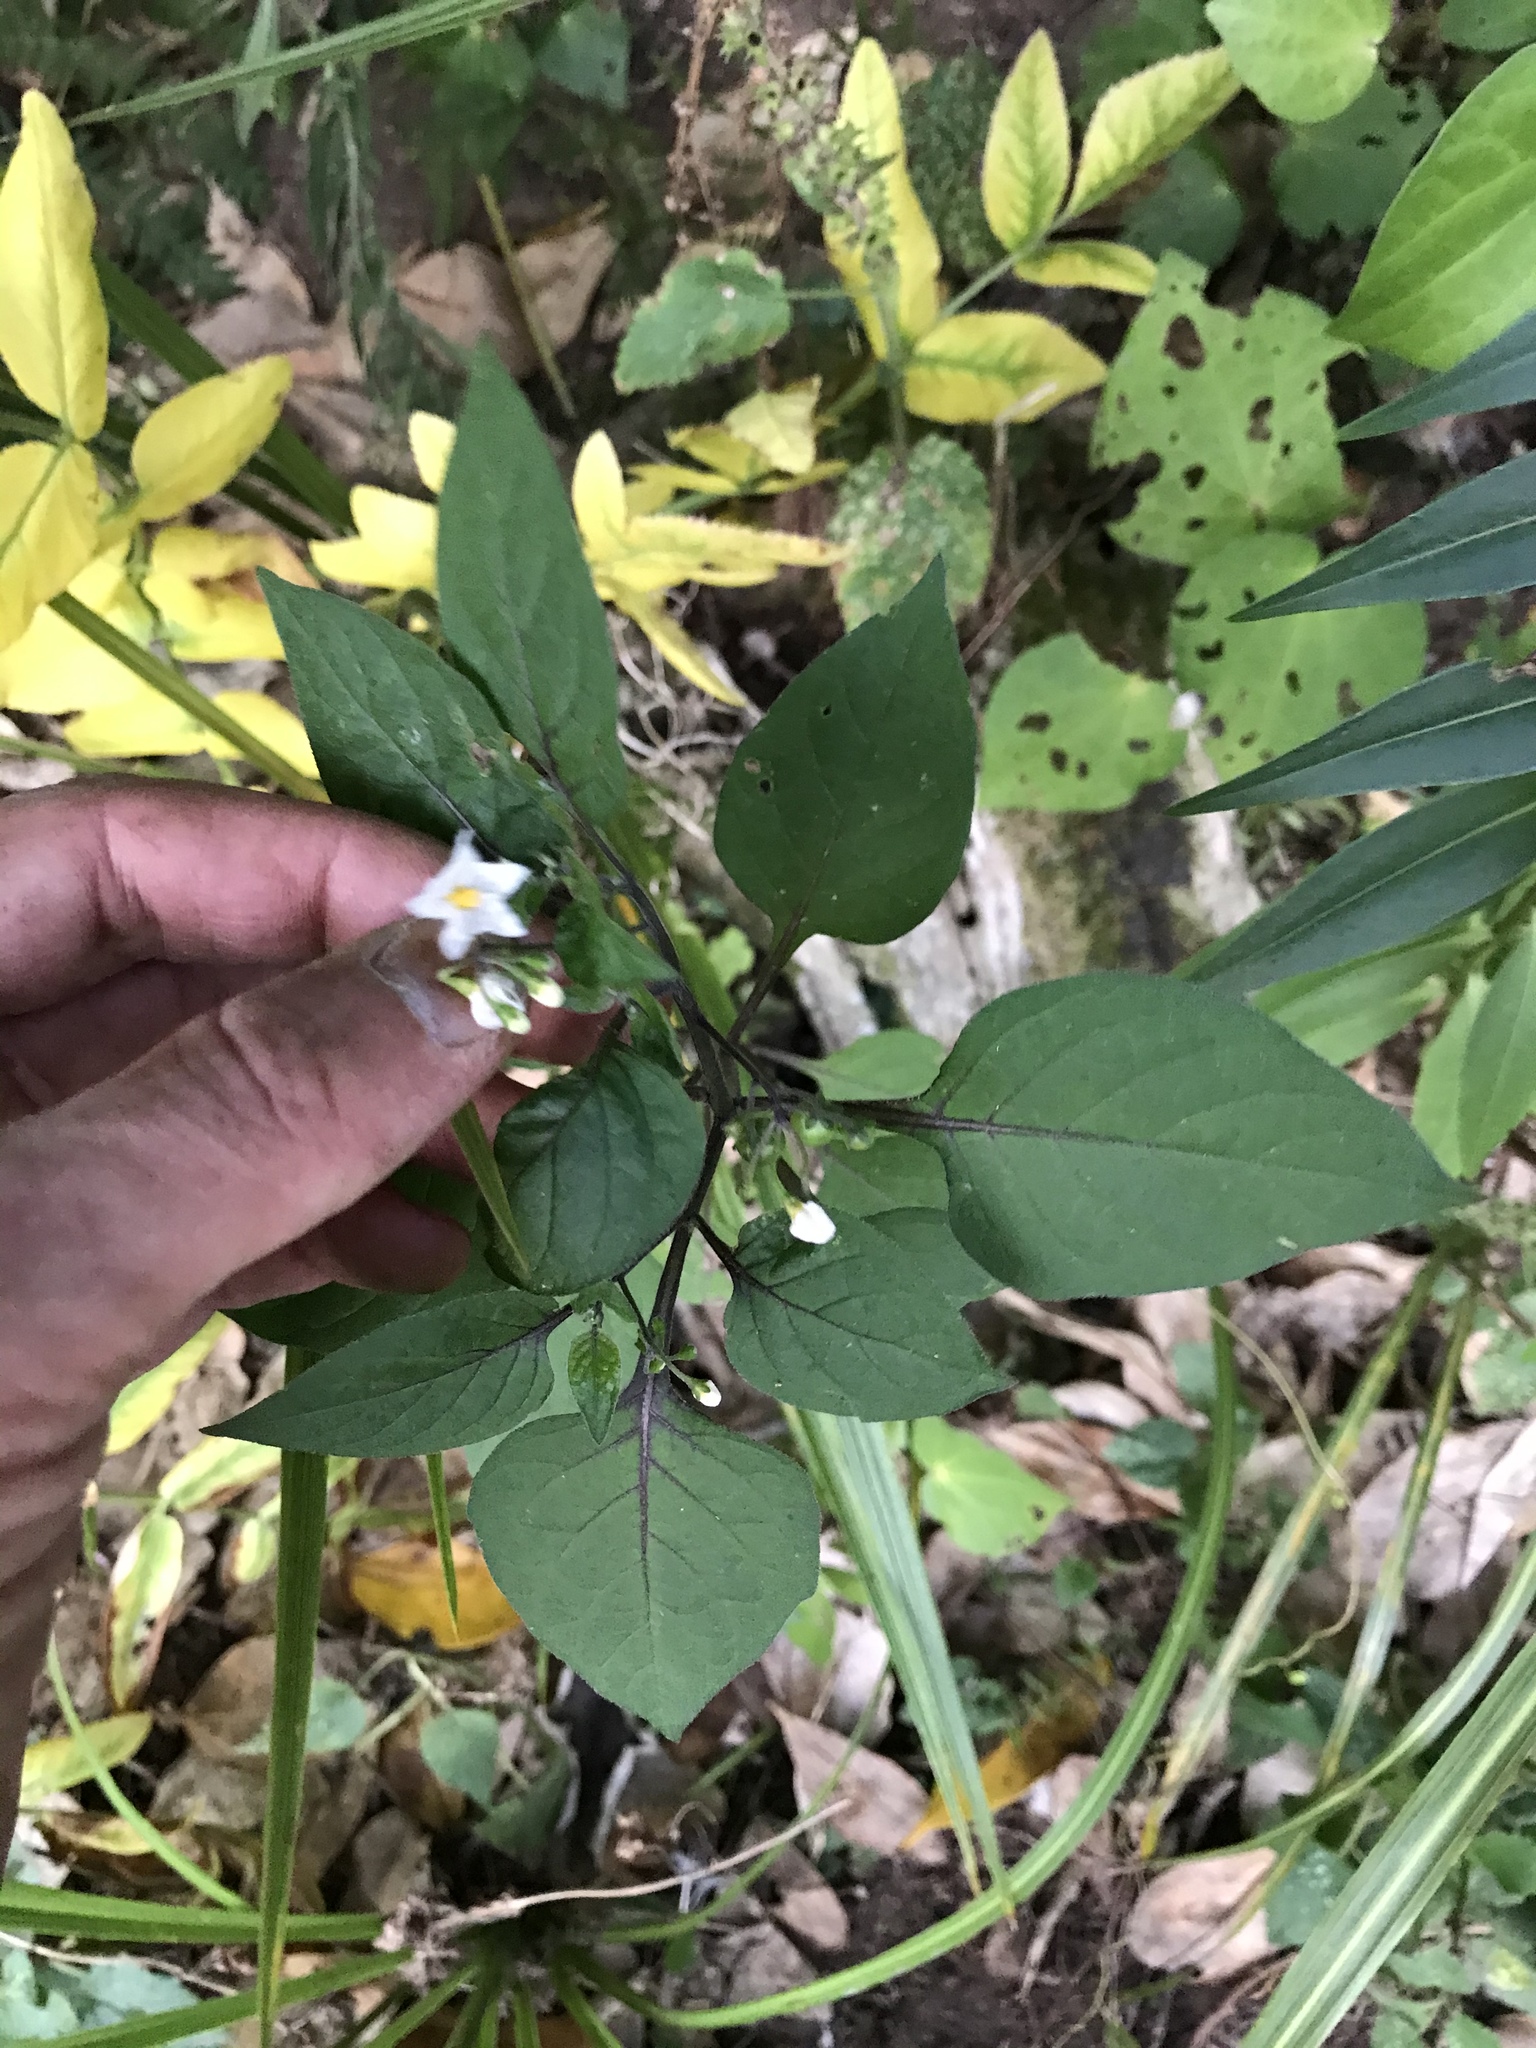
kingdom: Plantae
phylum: Tracheophyta
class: Magnoliopsida
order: Solanales
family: Solanaceae
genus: Solanum
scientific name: Solanum nigrum
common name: Black nightshade
